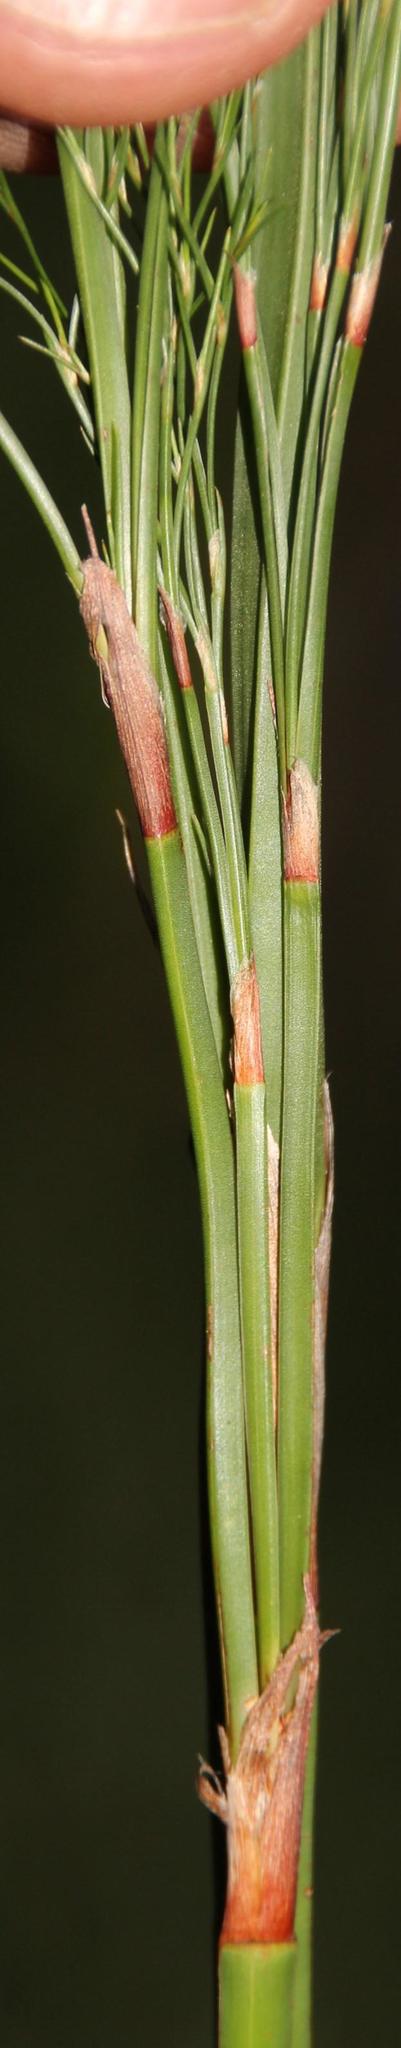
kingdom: Plantae
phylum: Tracheophyta
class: Liliopsida
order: Poales
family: Restionaceae
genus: Restio
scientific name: Restio quadratus
